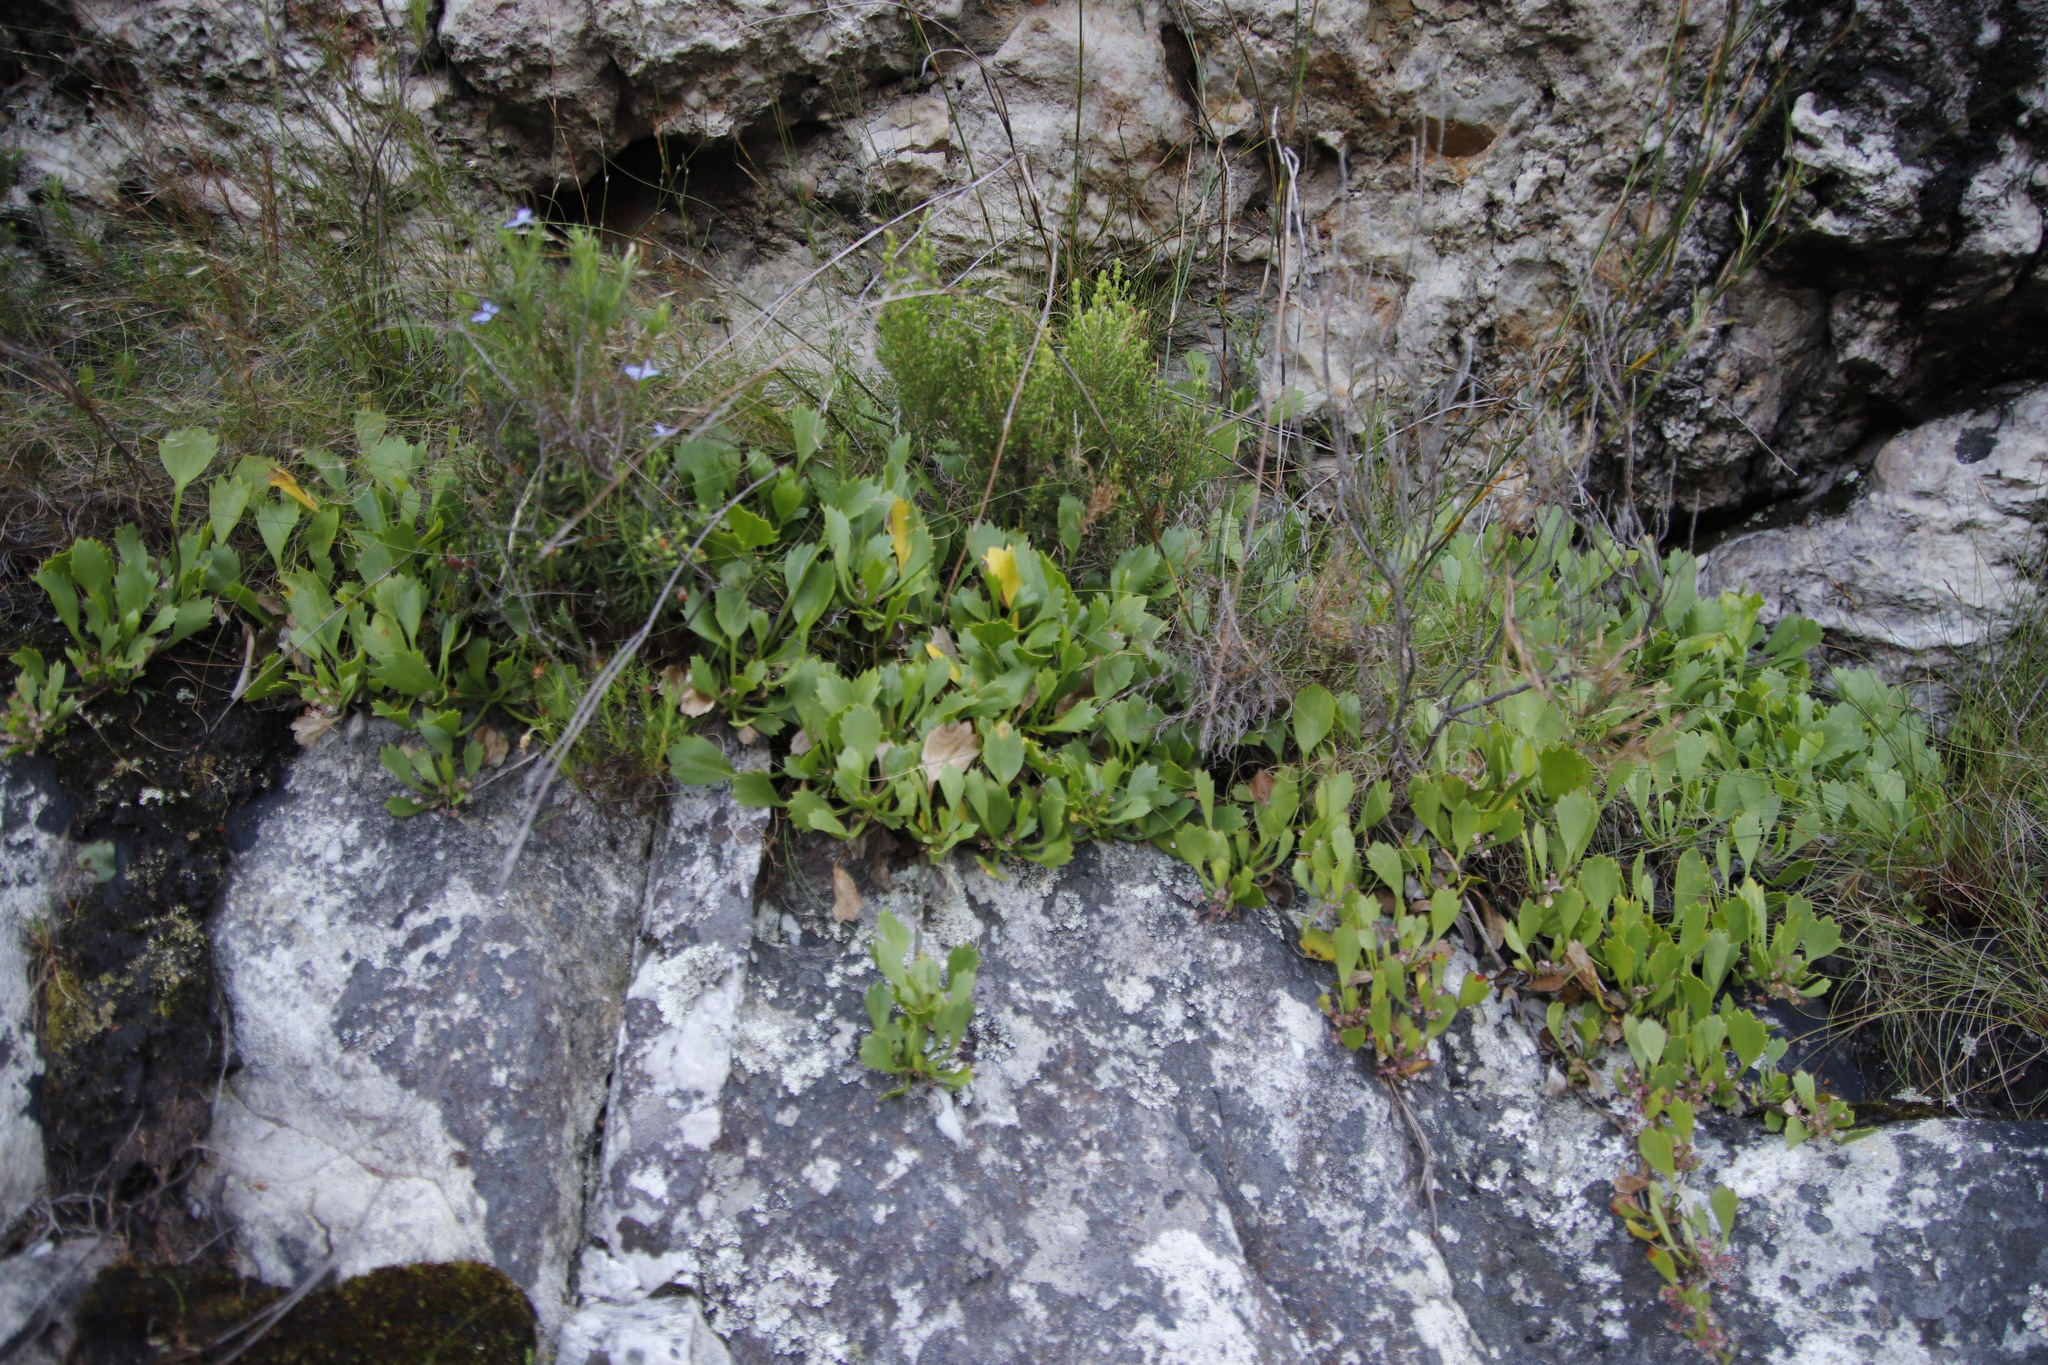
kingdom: Plantae
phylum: Tracheophyta
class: Magnoliopsida
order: Apiales
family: Apiaceae
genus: Centella
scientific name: Centella triloba
